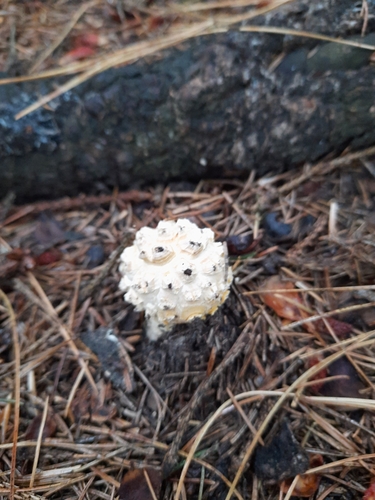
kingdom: Fungi
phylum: Basidiomycota
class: Agaricomycetes
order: Agaricales
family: Amanitaceae
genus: Amanita
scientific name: Amanita pantherina
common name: Panthercap
